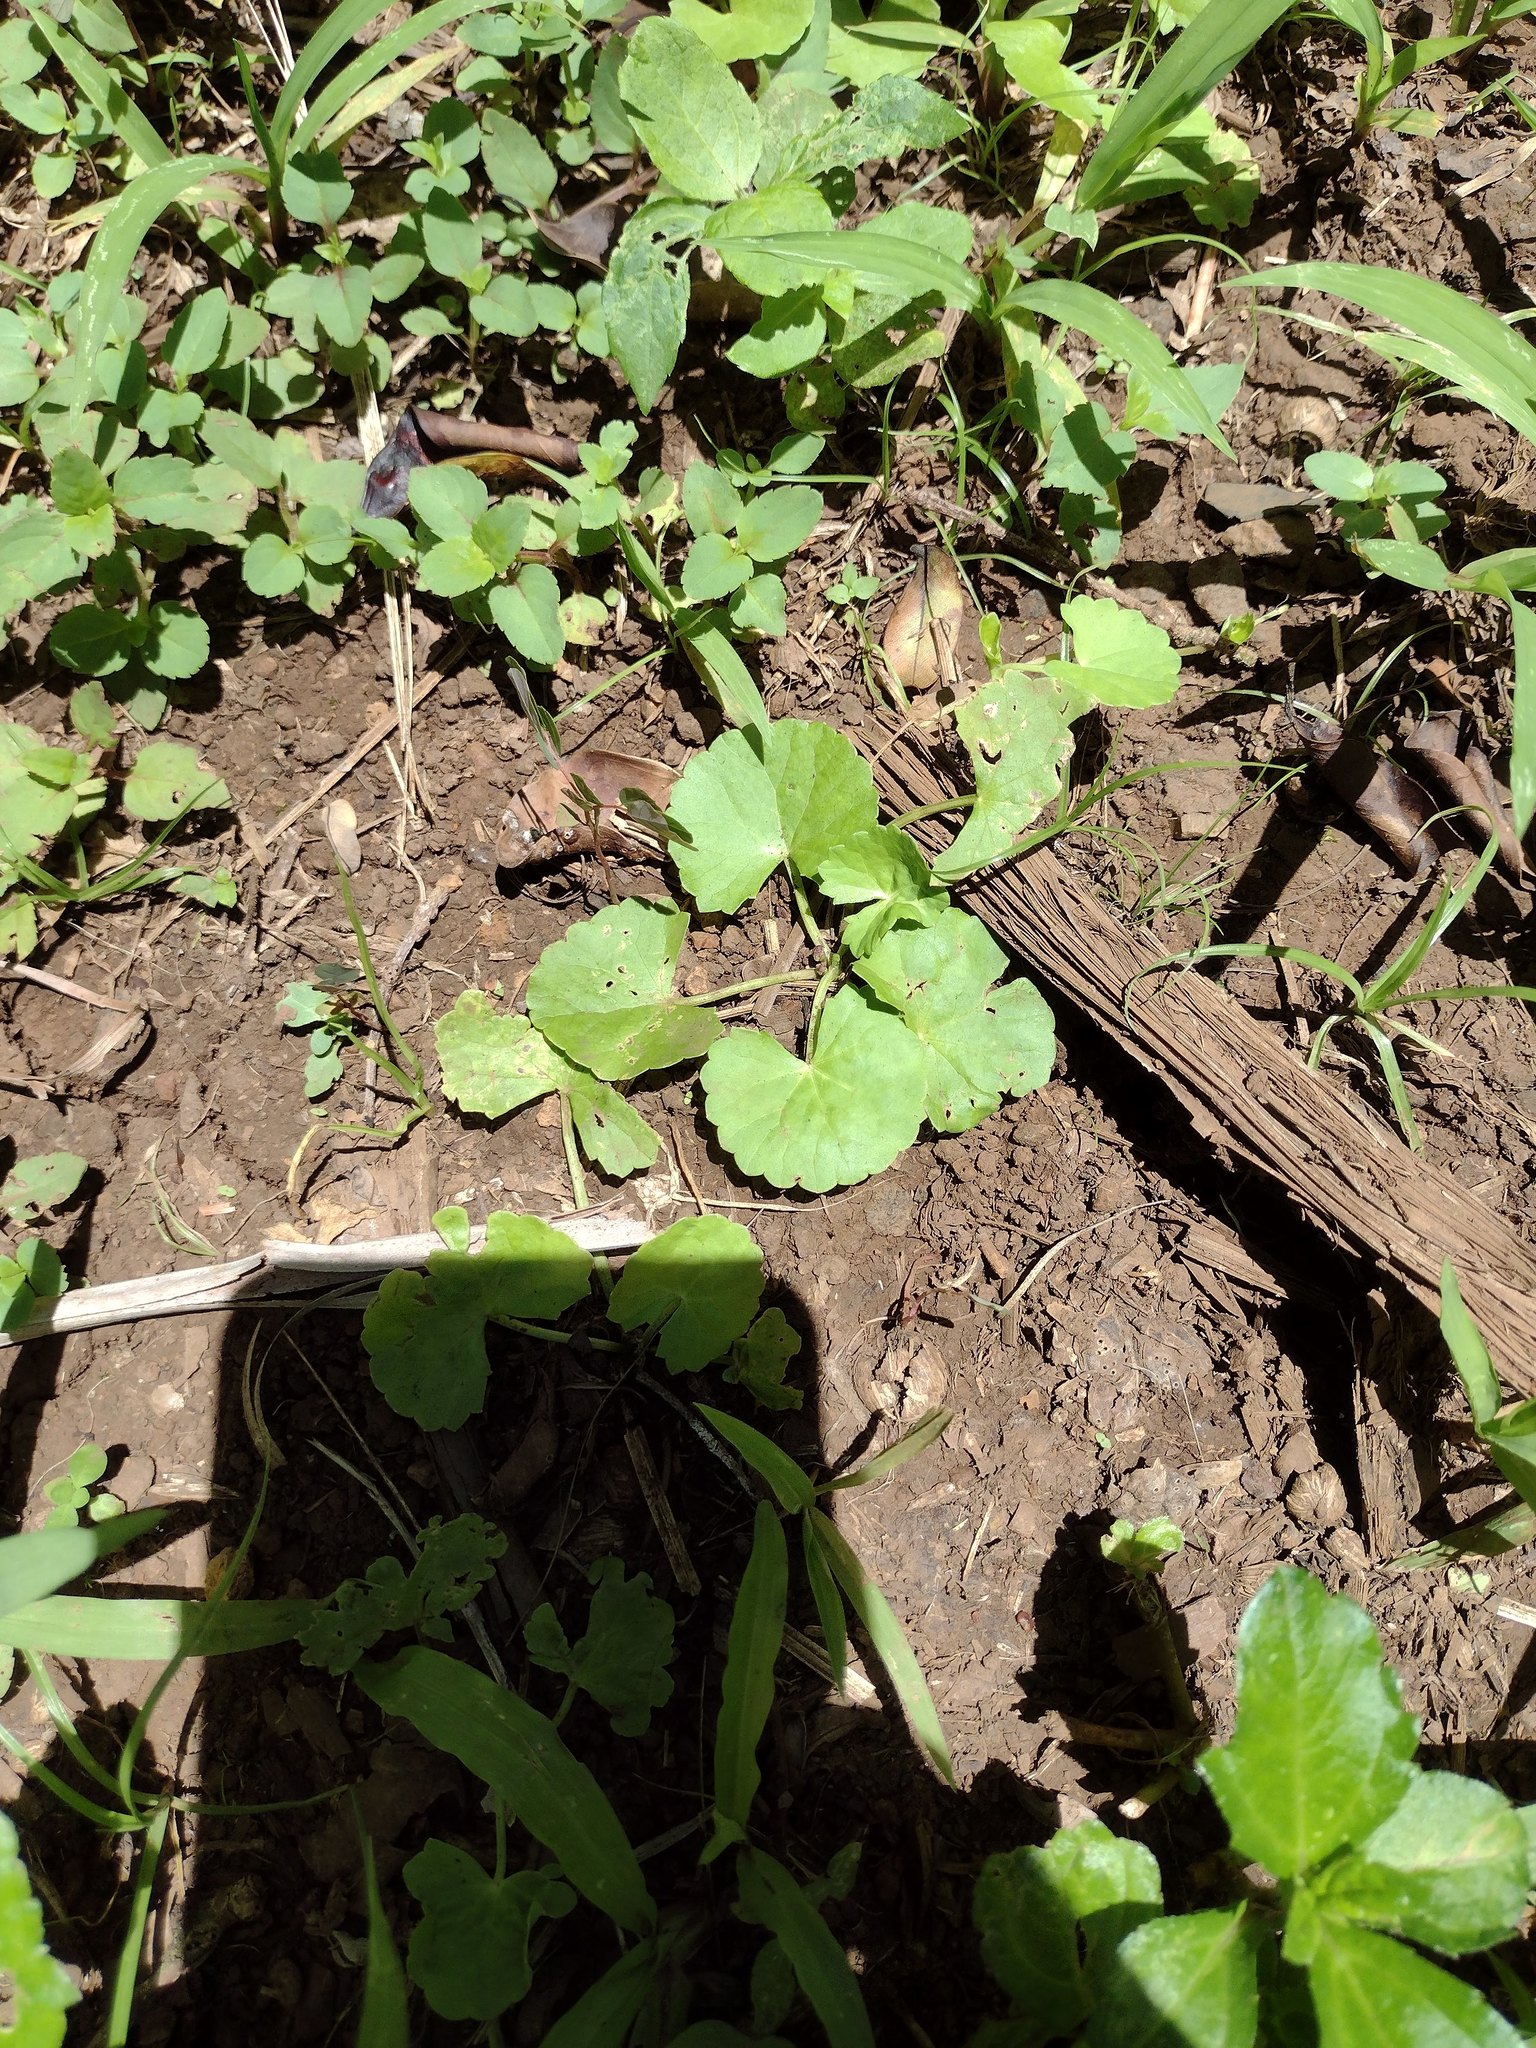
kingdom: Plantae
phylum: Tracheophyta
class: Magnoliopsida
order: Apiales
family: Apiaceae
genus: Centella
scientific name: Centella asiatica
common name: Spadeleaf
